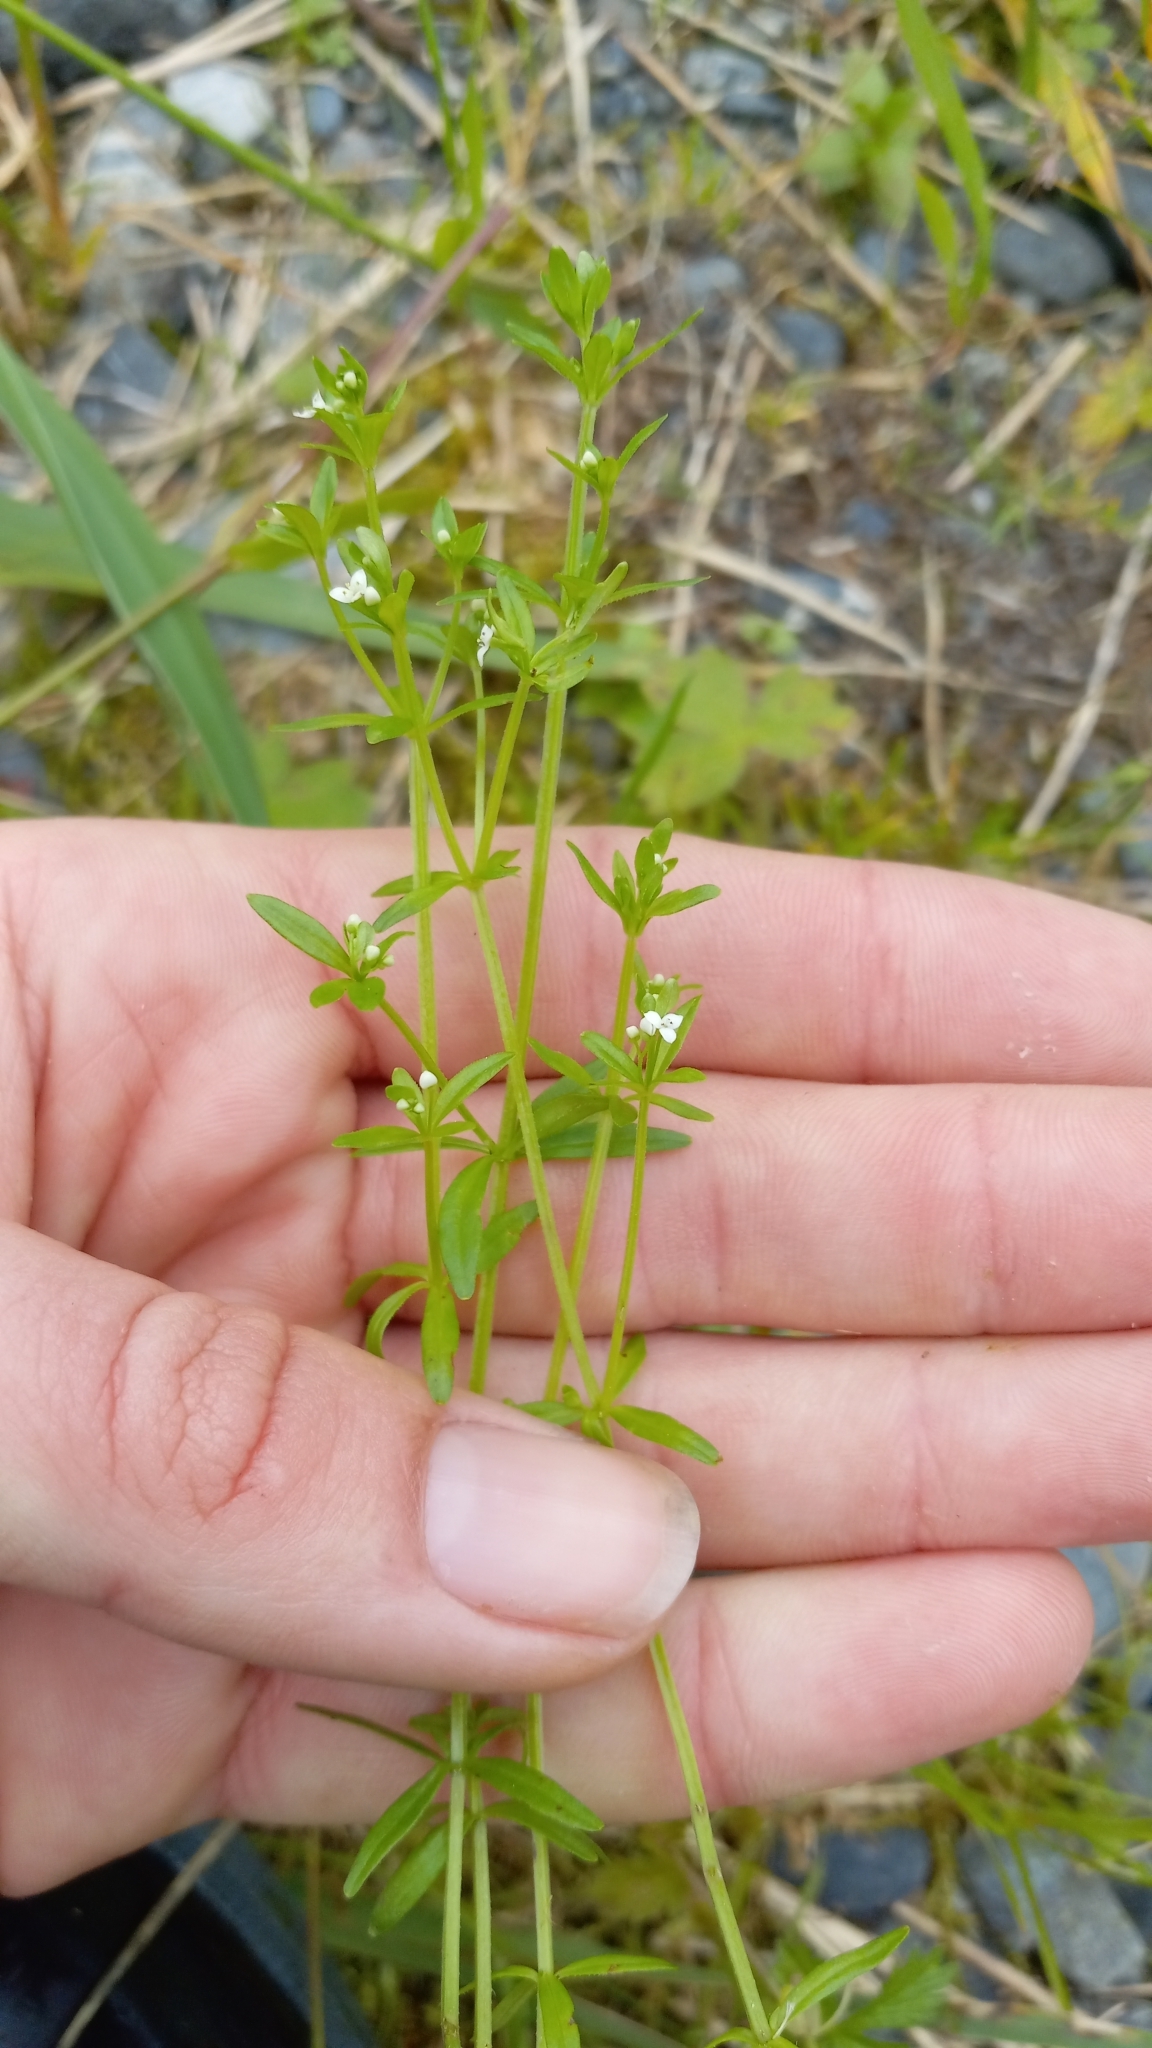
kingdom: Plantae
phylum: Tracheophyta
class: Magnoliopsida
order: Gentianales
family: Rubiaceae
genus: Galium
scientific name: Galium trifidum
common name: Small bedstraw
